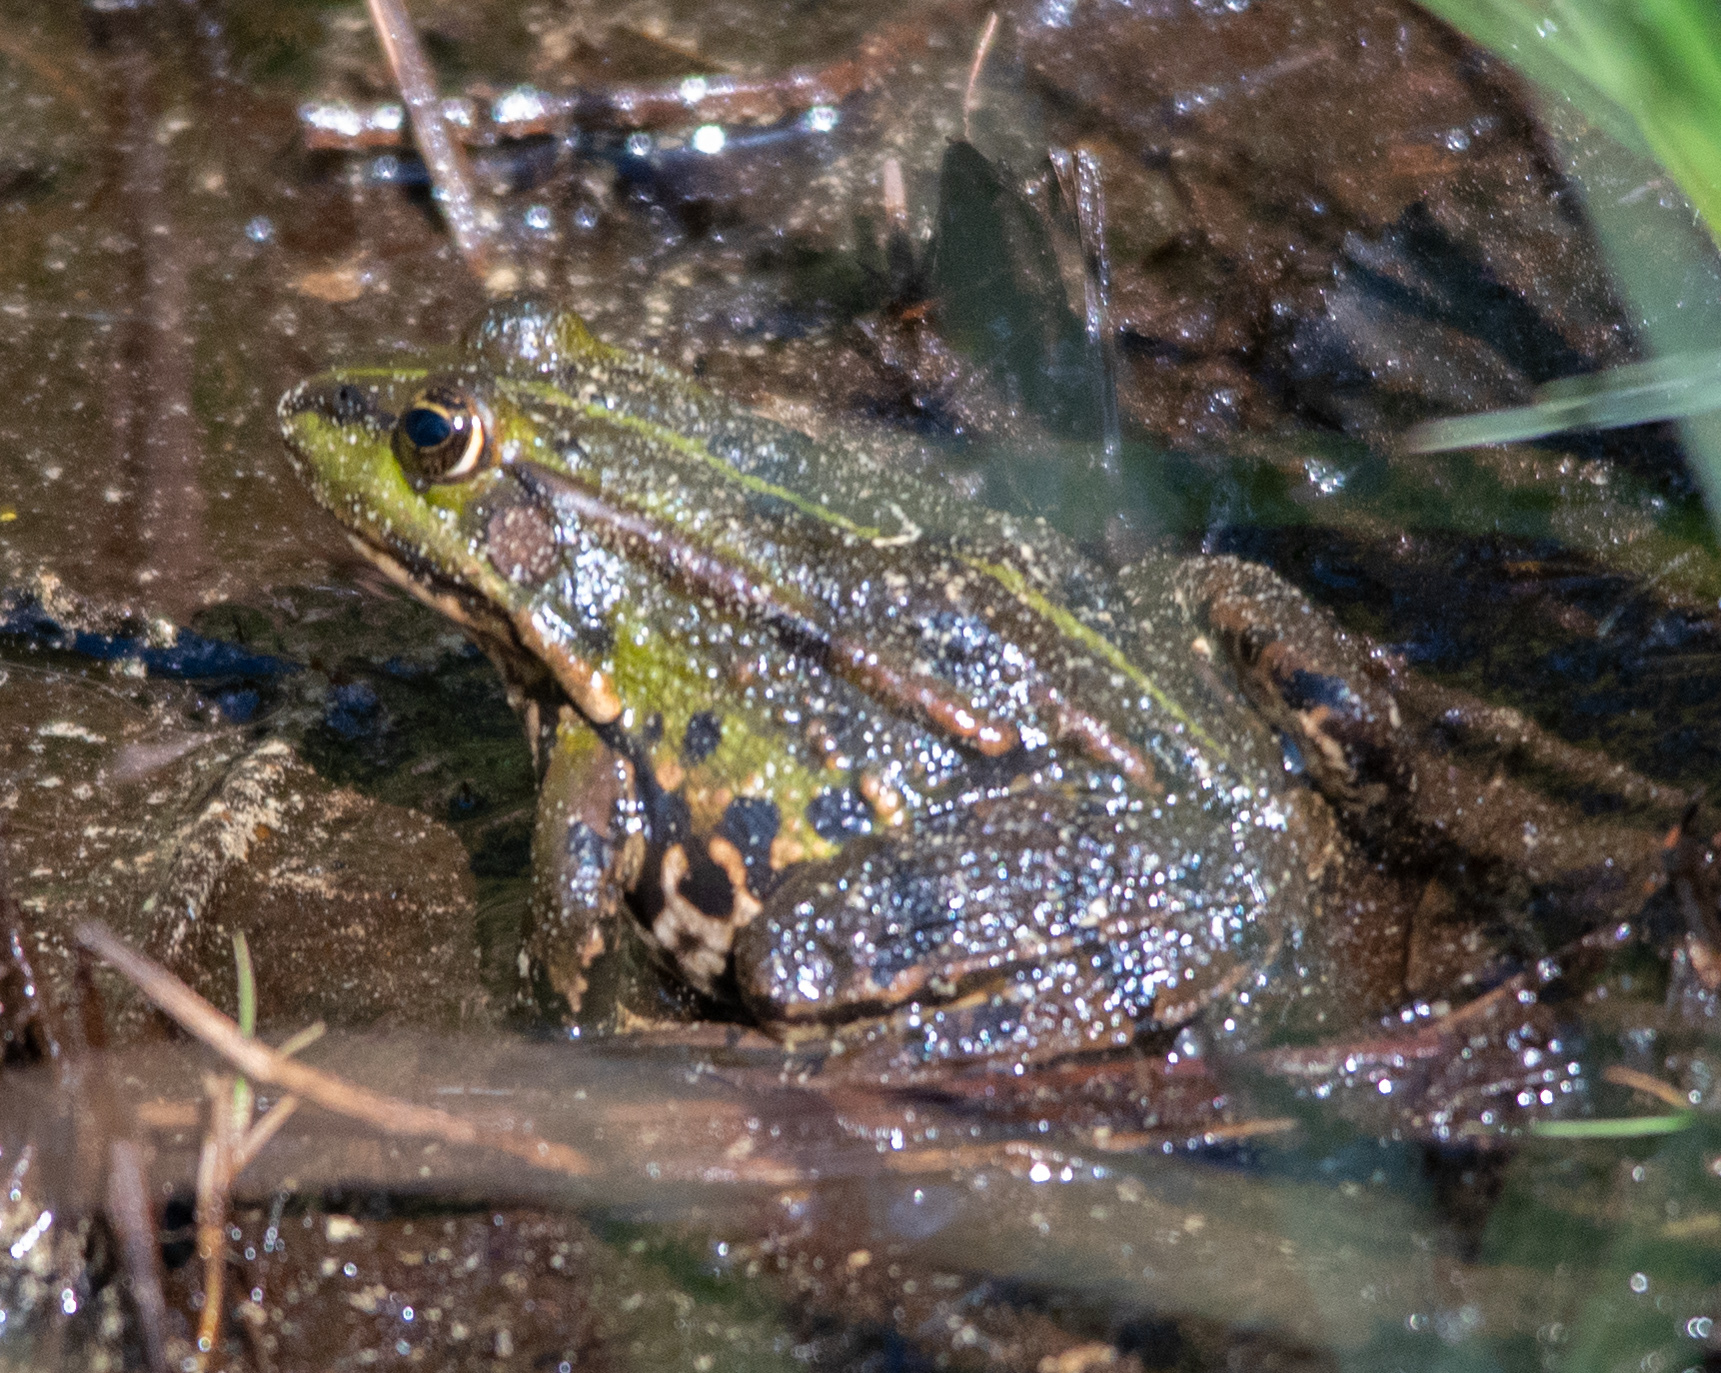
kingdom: Animalia
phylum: Chordata
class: Amphibia
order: Anura
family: Ranidae
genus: Pelophylax
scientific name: Pelophylax
